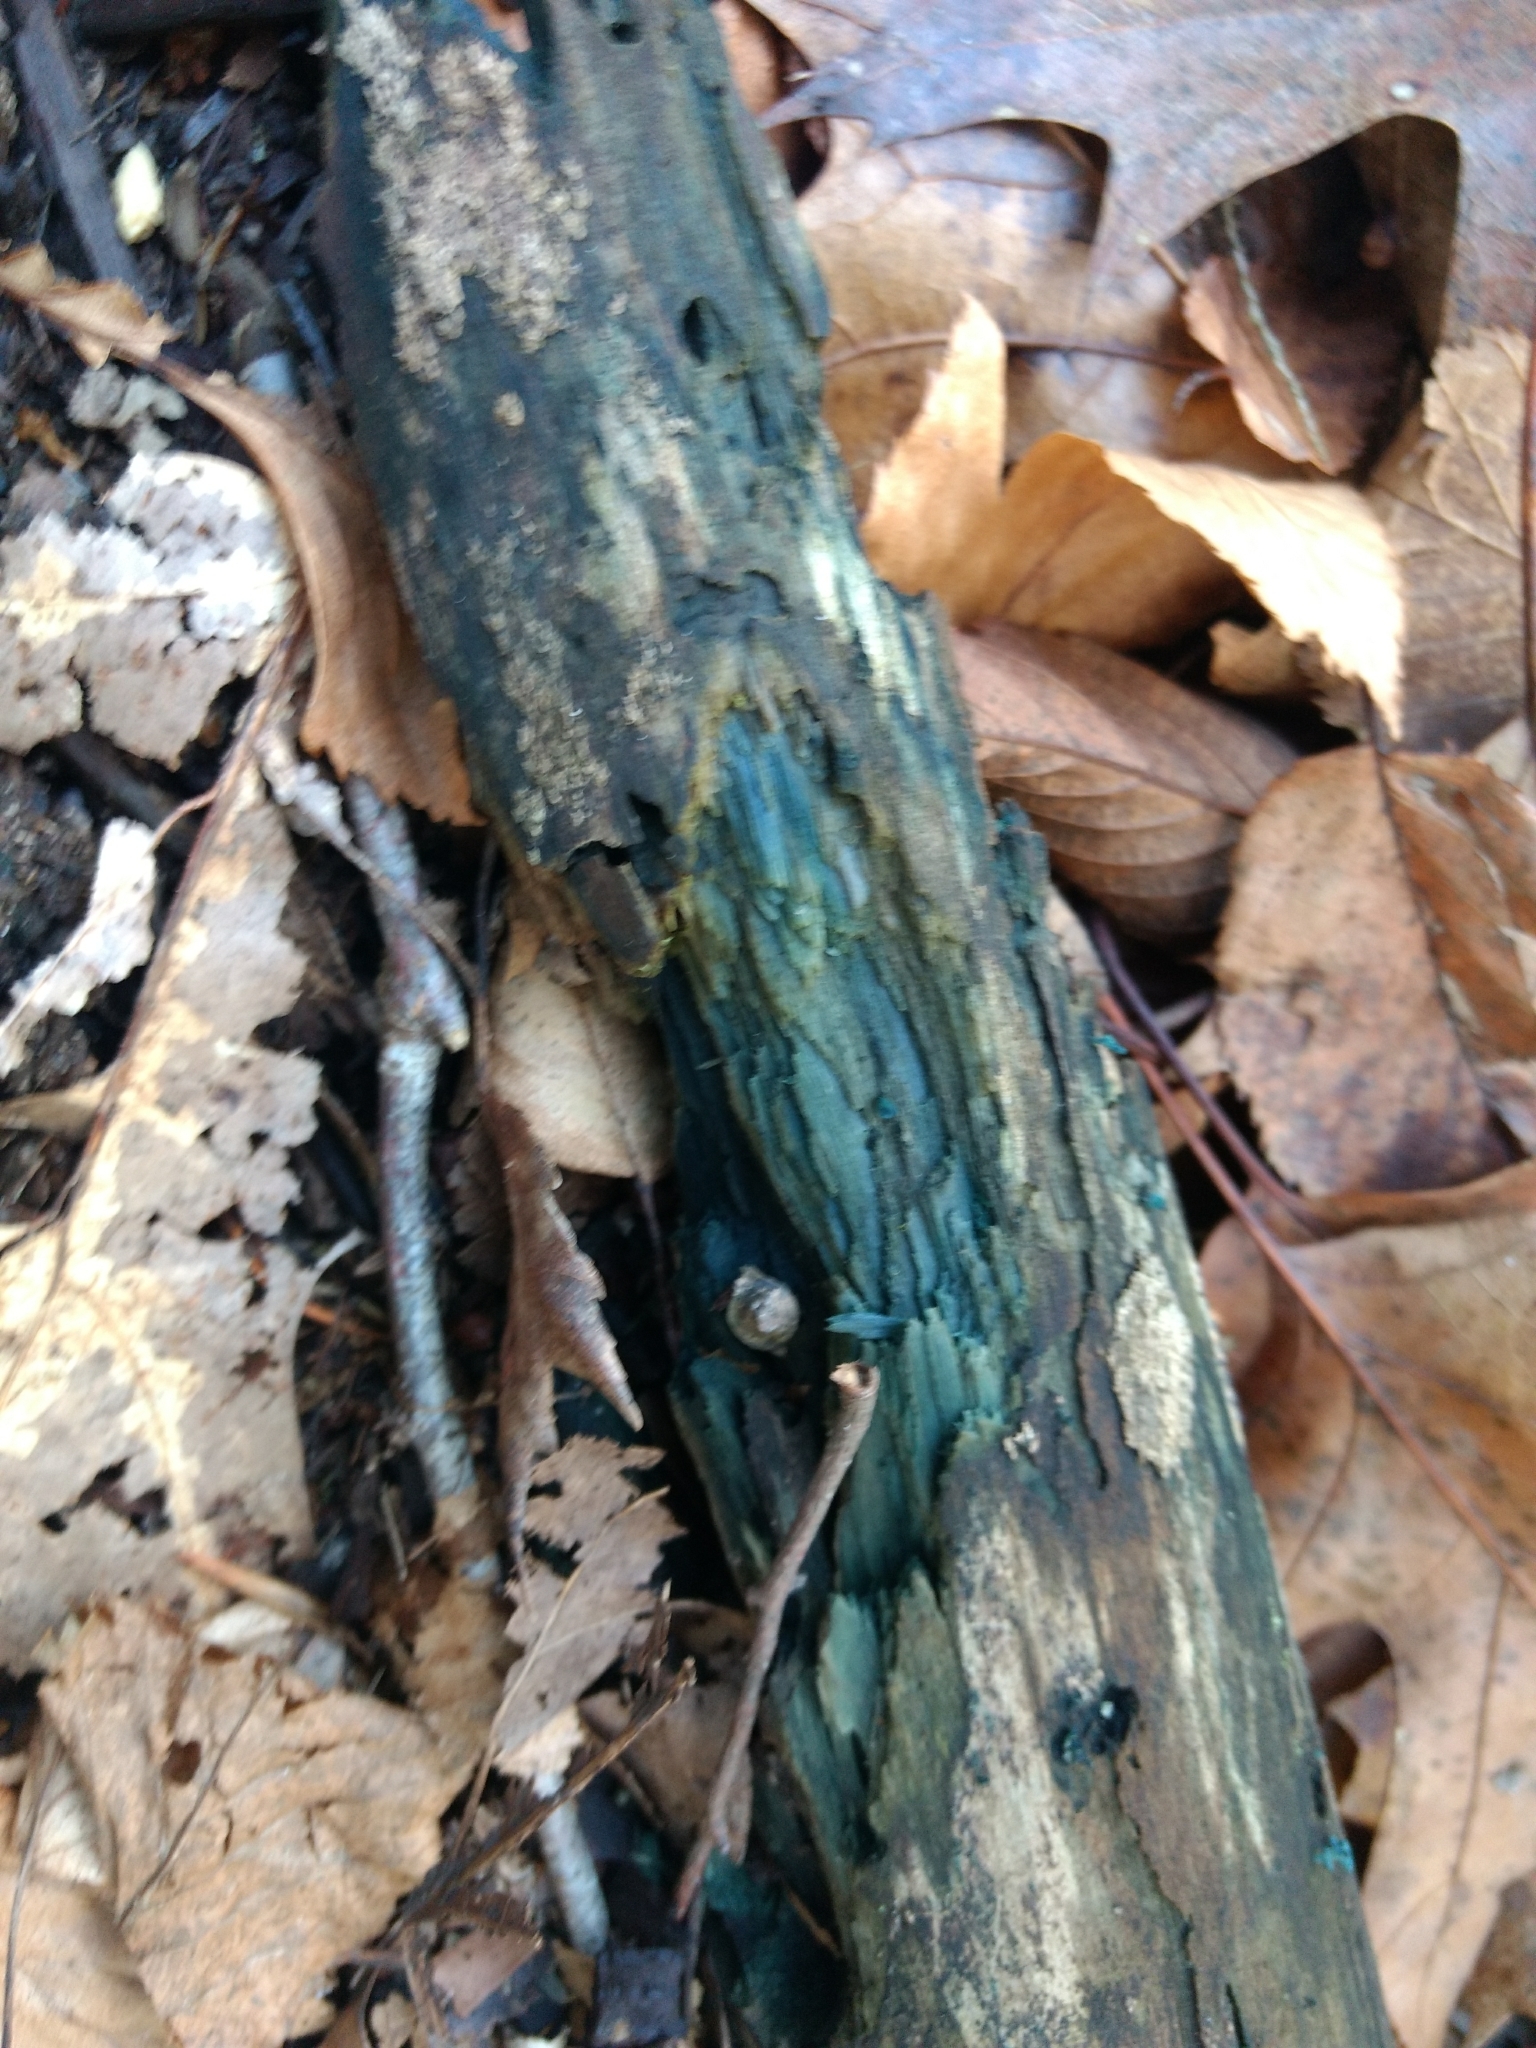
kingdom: Fungi
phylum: Ascomycota
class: Leotiomycetes
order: Helotiales
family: Chlorociboriaceae
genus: Chlorociboria
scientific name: Chlorociboria
